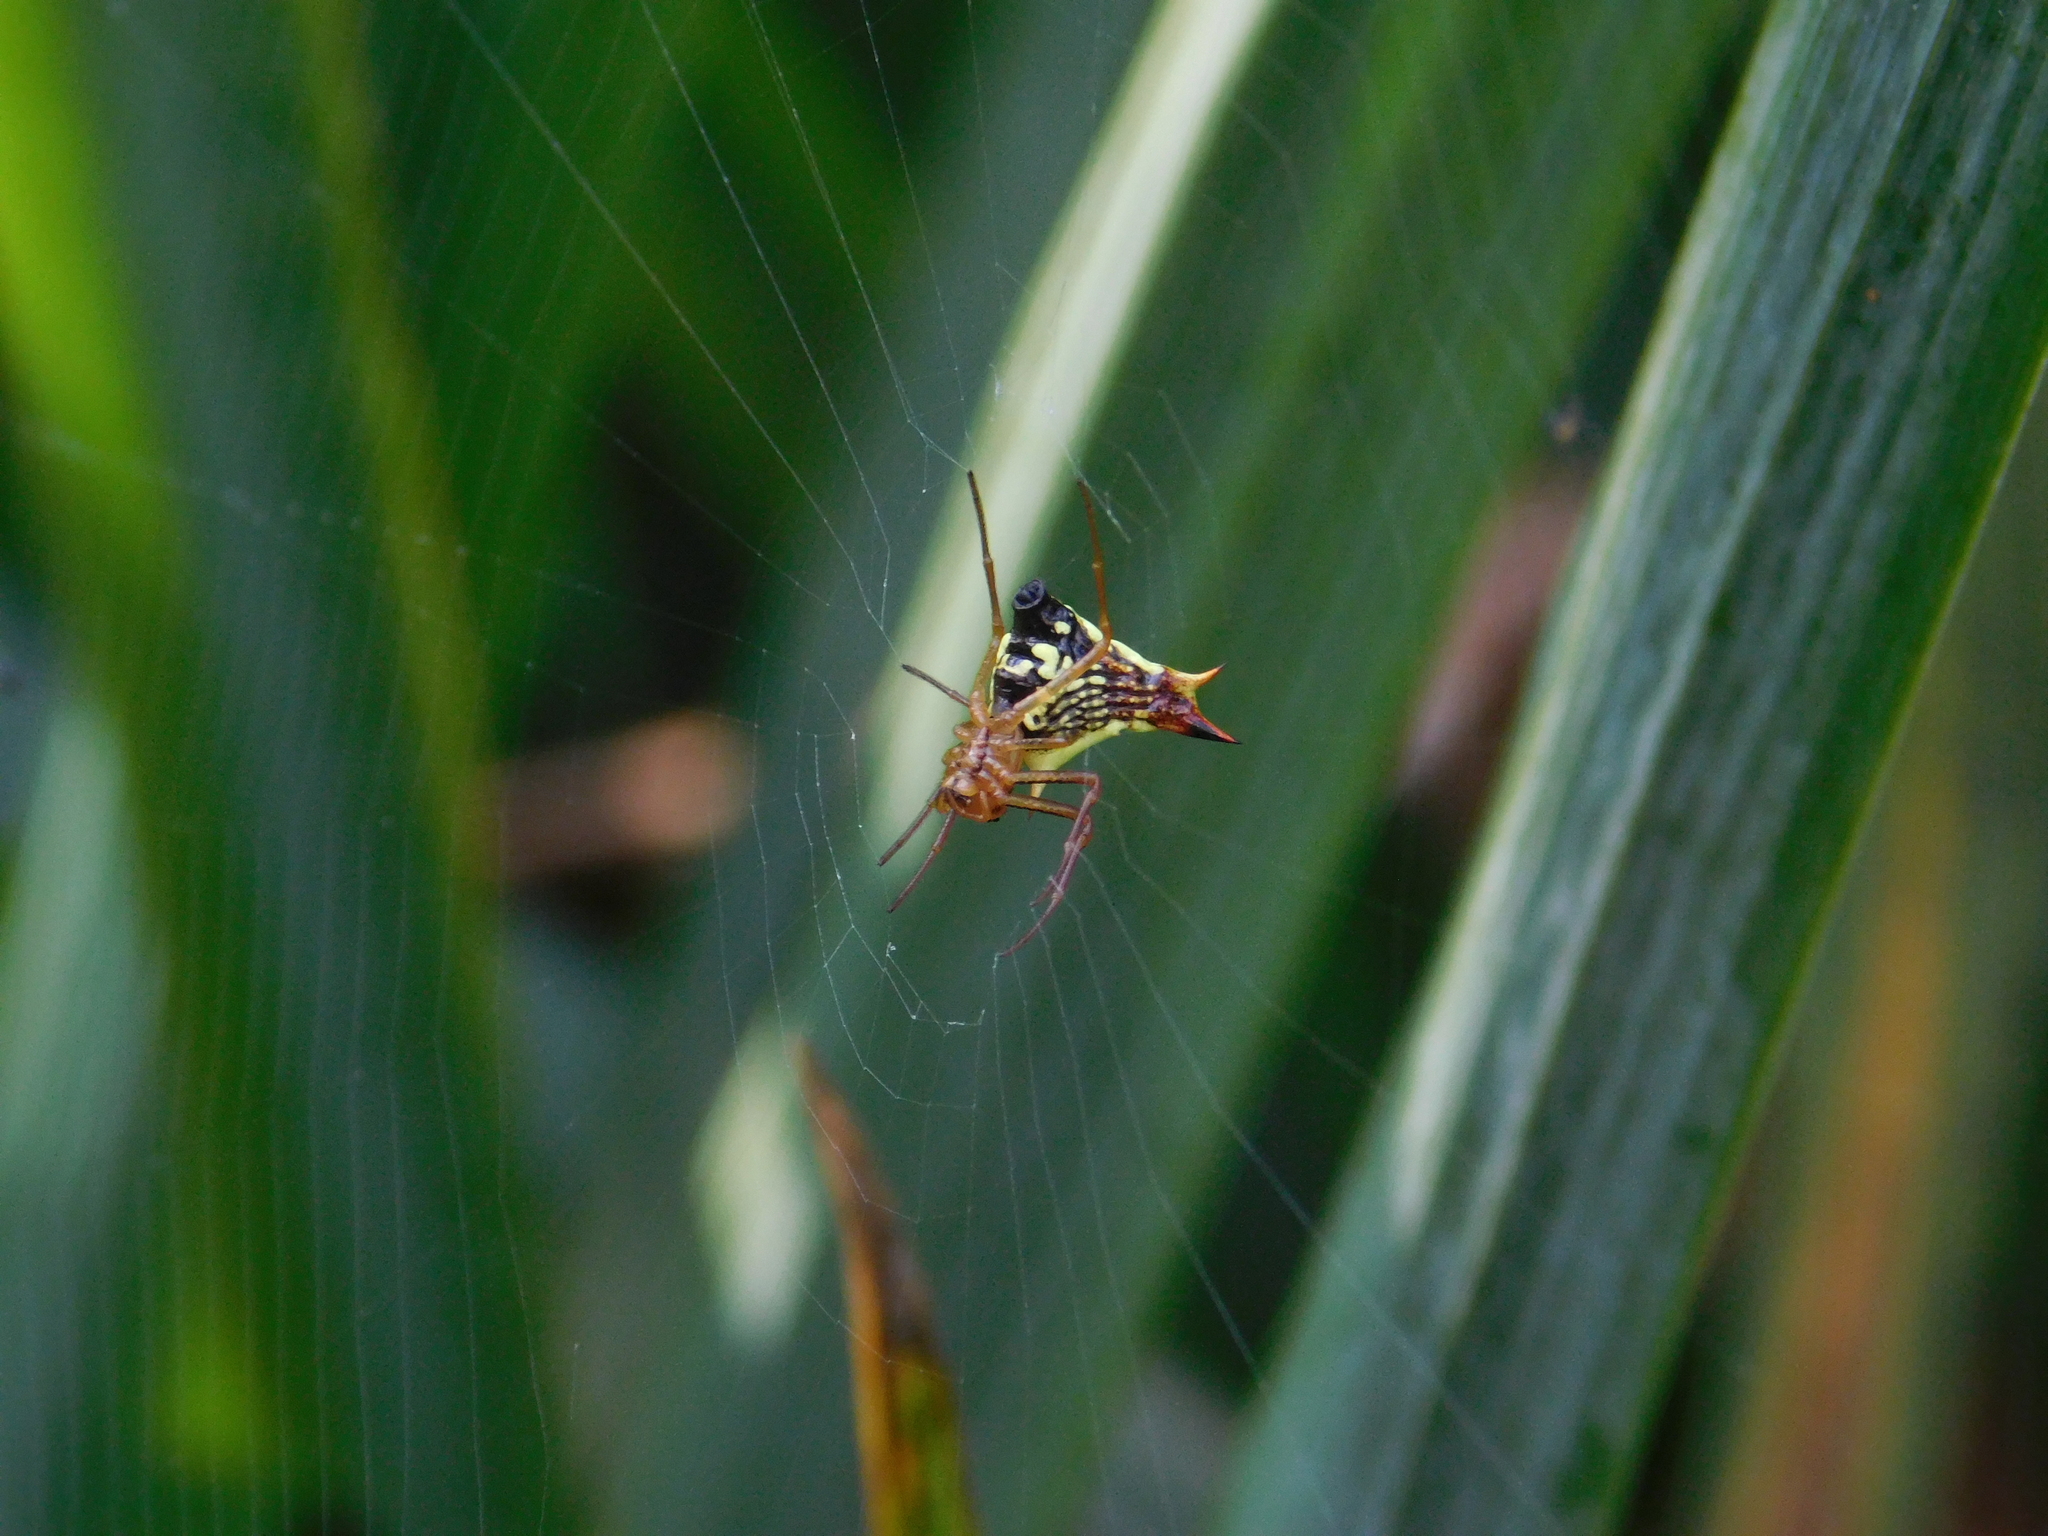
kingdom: Animalia
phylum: Arthropoda
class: Arachnida
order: Araneae
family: Araneidae
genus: Micrathena
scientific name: Micrathena furcata
